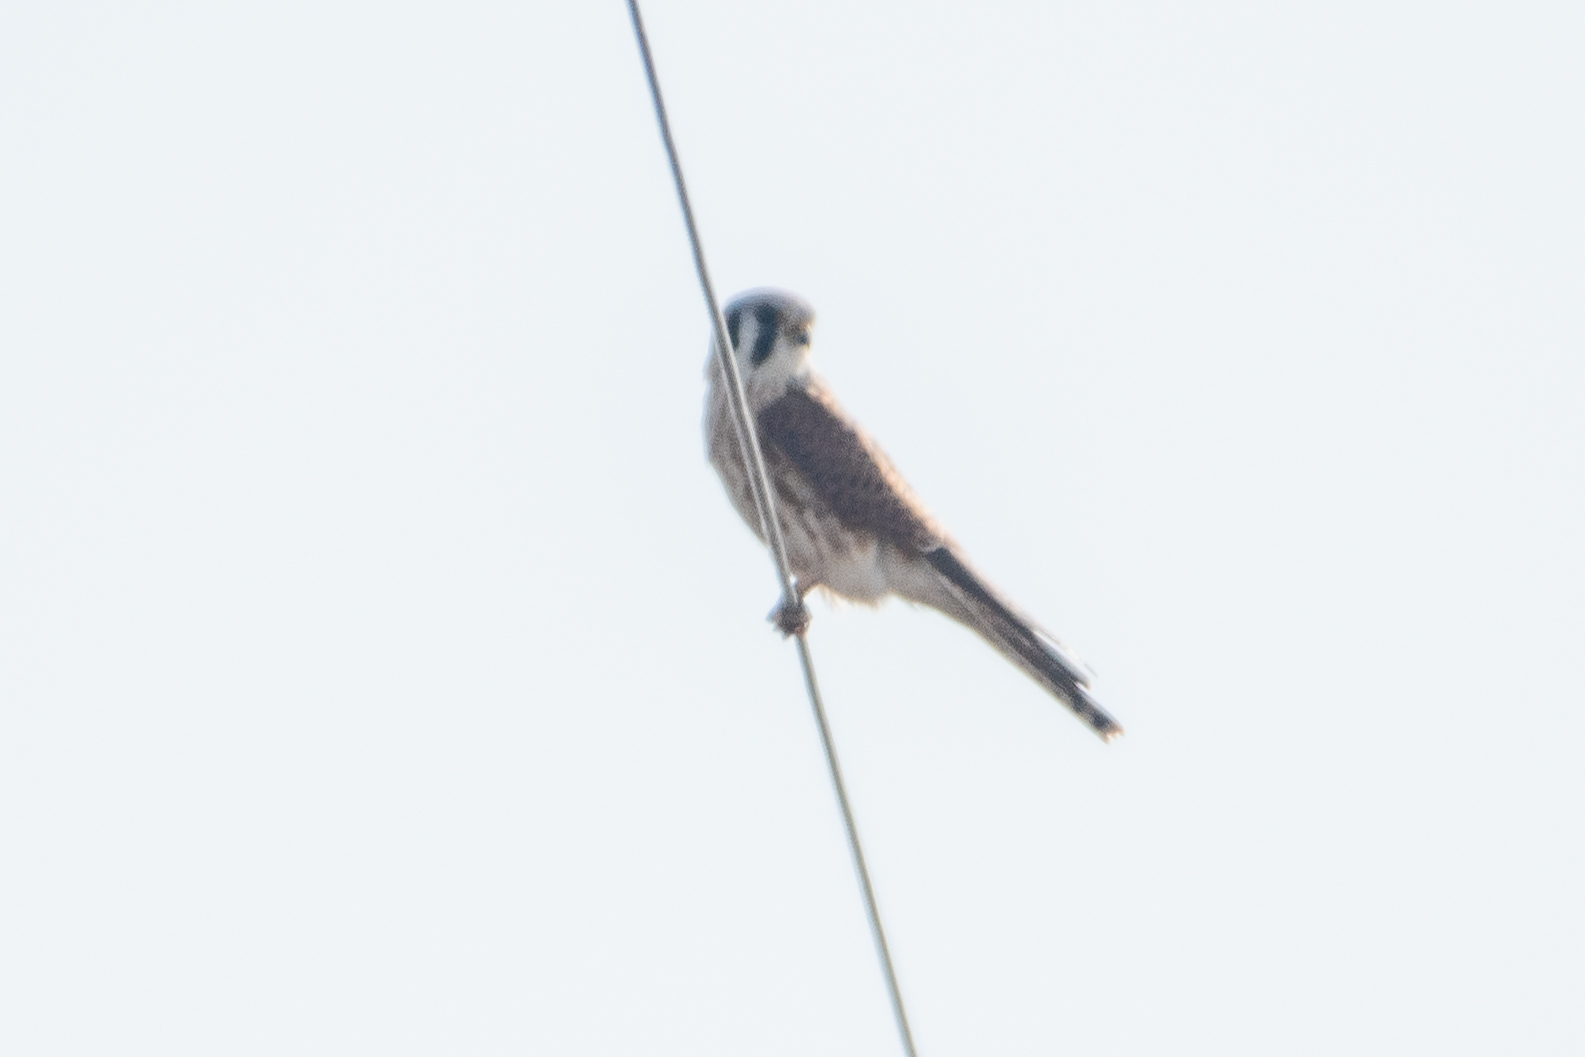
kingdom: Animalia
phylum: Chordata
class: Aves
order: Falconiformes
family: Falconidae
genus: Falco
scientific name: Falco sparverius
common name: American kestrel
